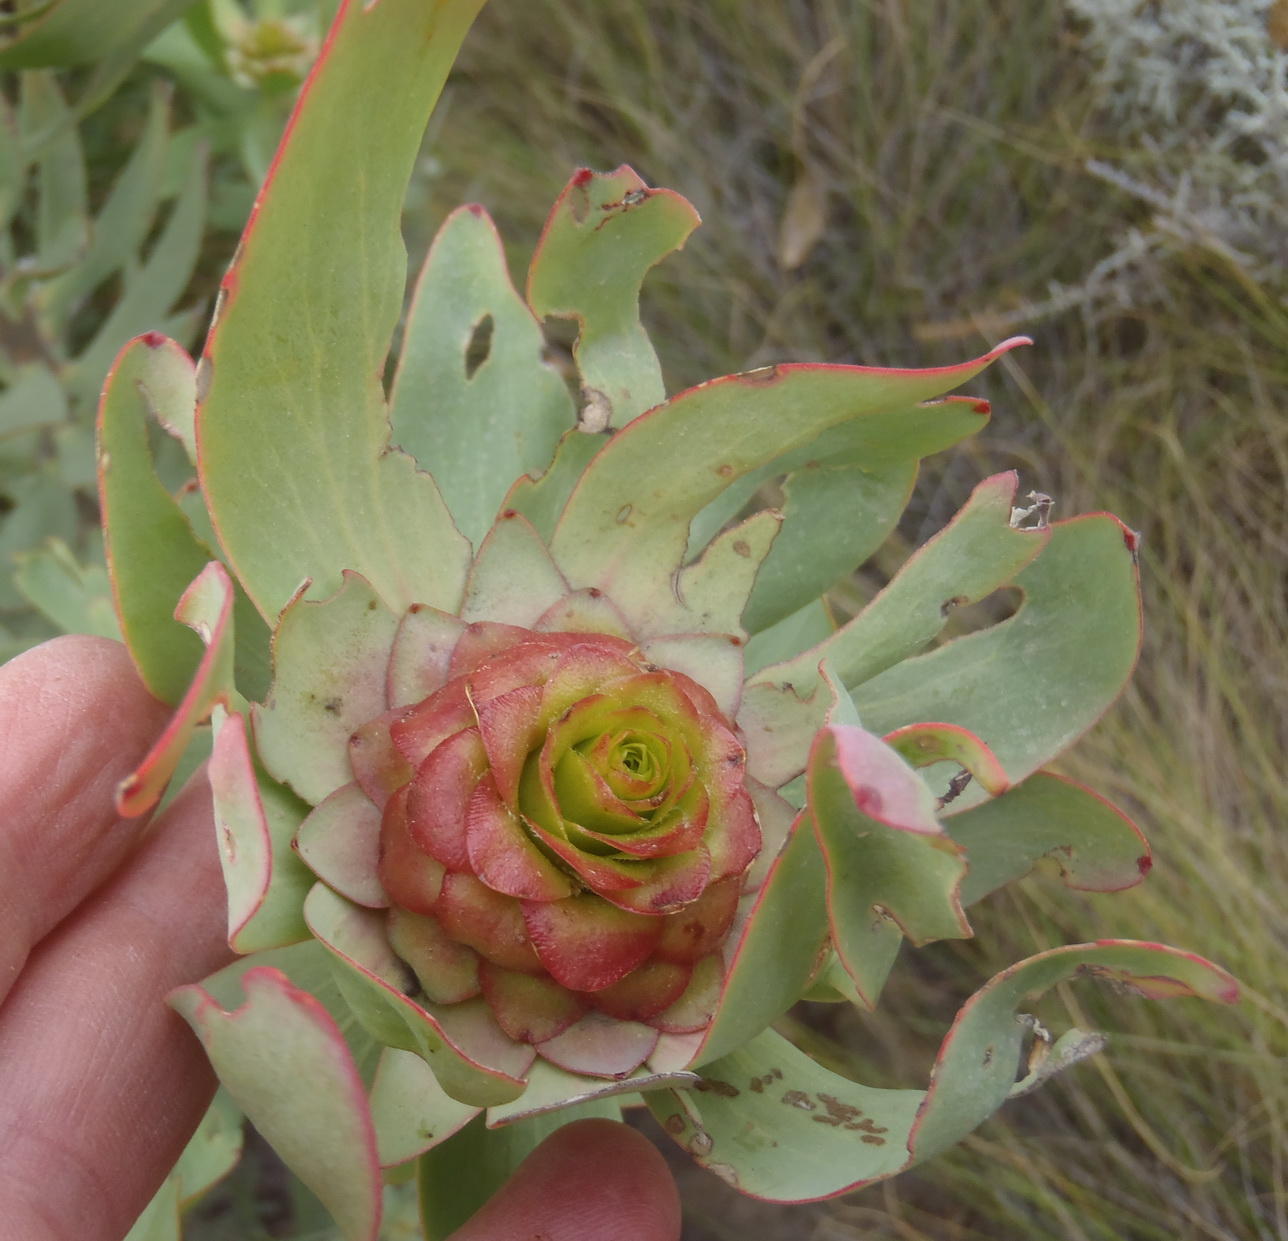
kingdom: Plantae
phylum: Tracheophyta
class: Magnoliopsida
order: Proteales
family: Proteaceae
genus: Leucadendron
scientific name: Leucadendron tinctum
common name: Spicy conebush
